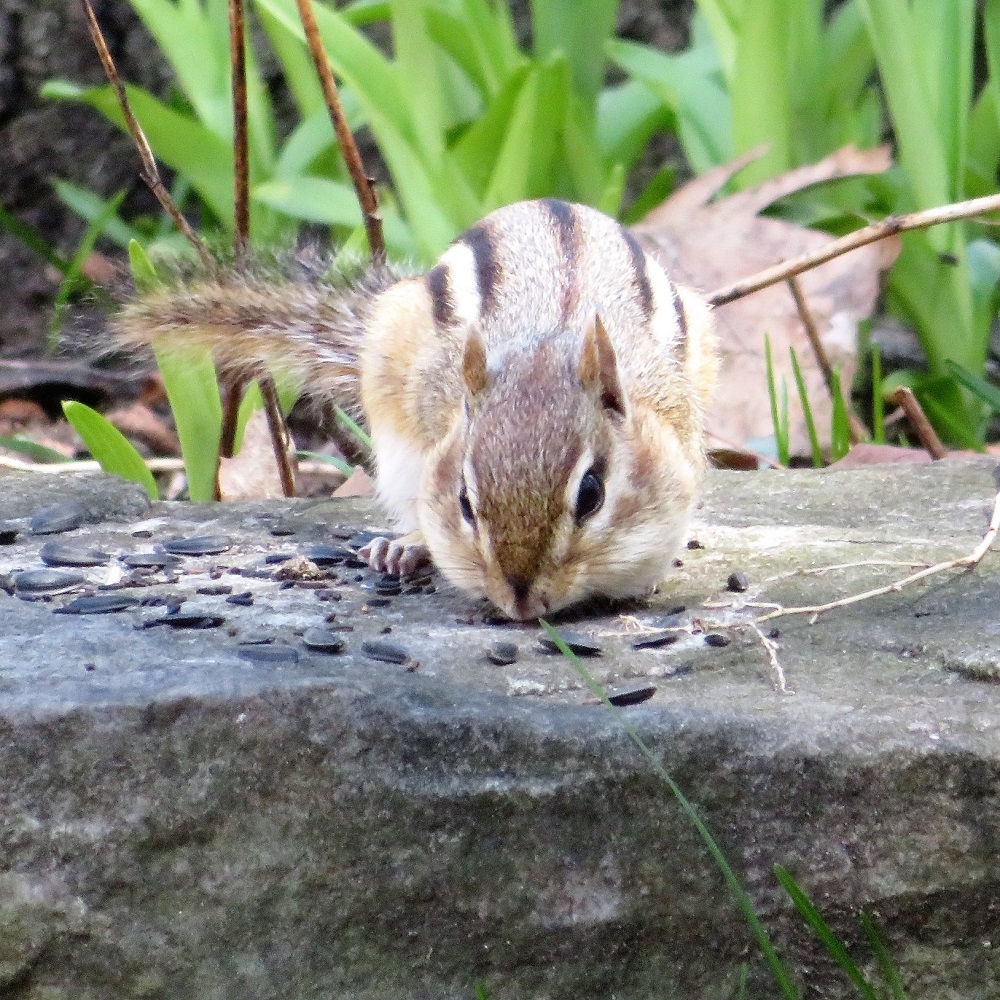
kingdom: Animalia
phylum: Chordata
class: Mammalia
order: Rodentia
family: Sciuridae
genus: Tamias
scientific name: Tamias striatus
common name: Eastern chipmunk
